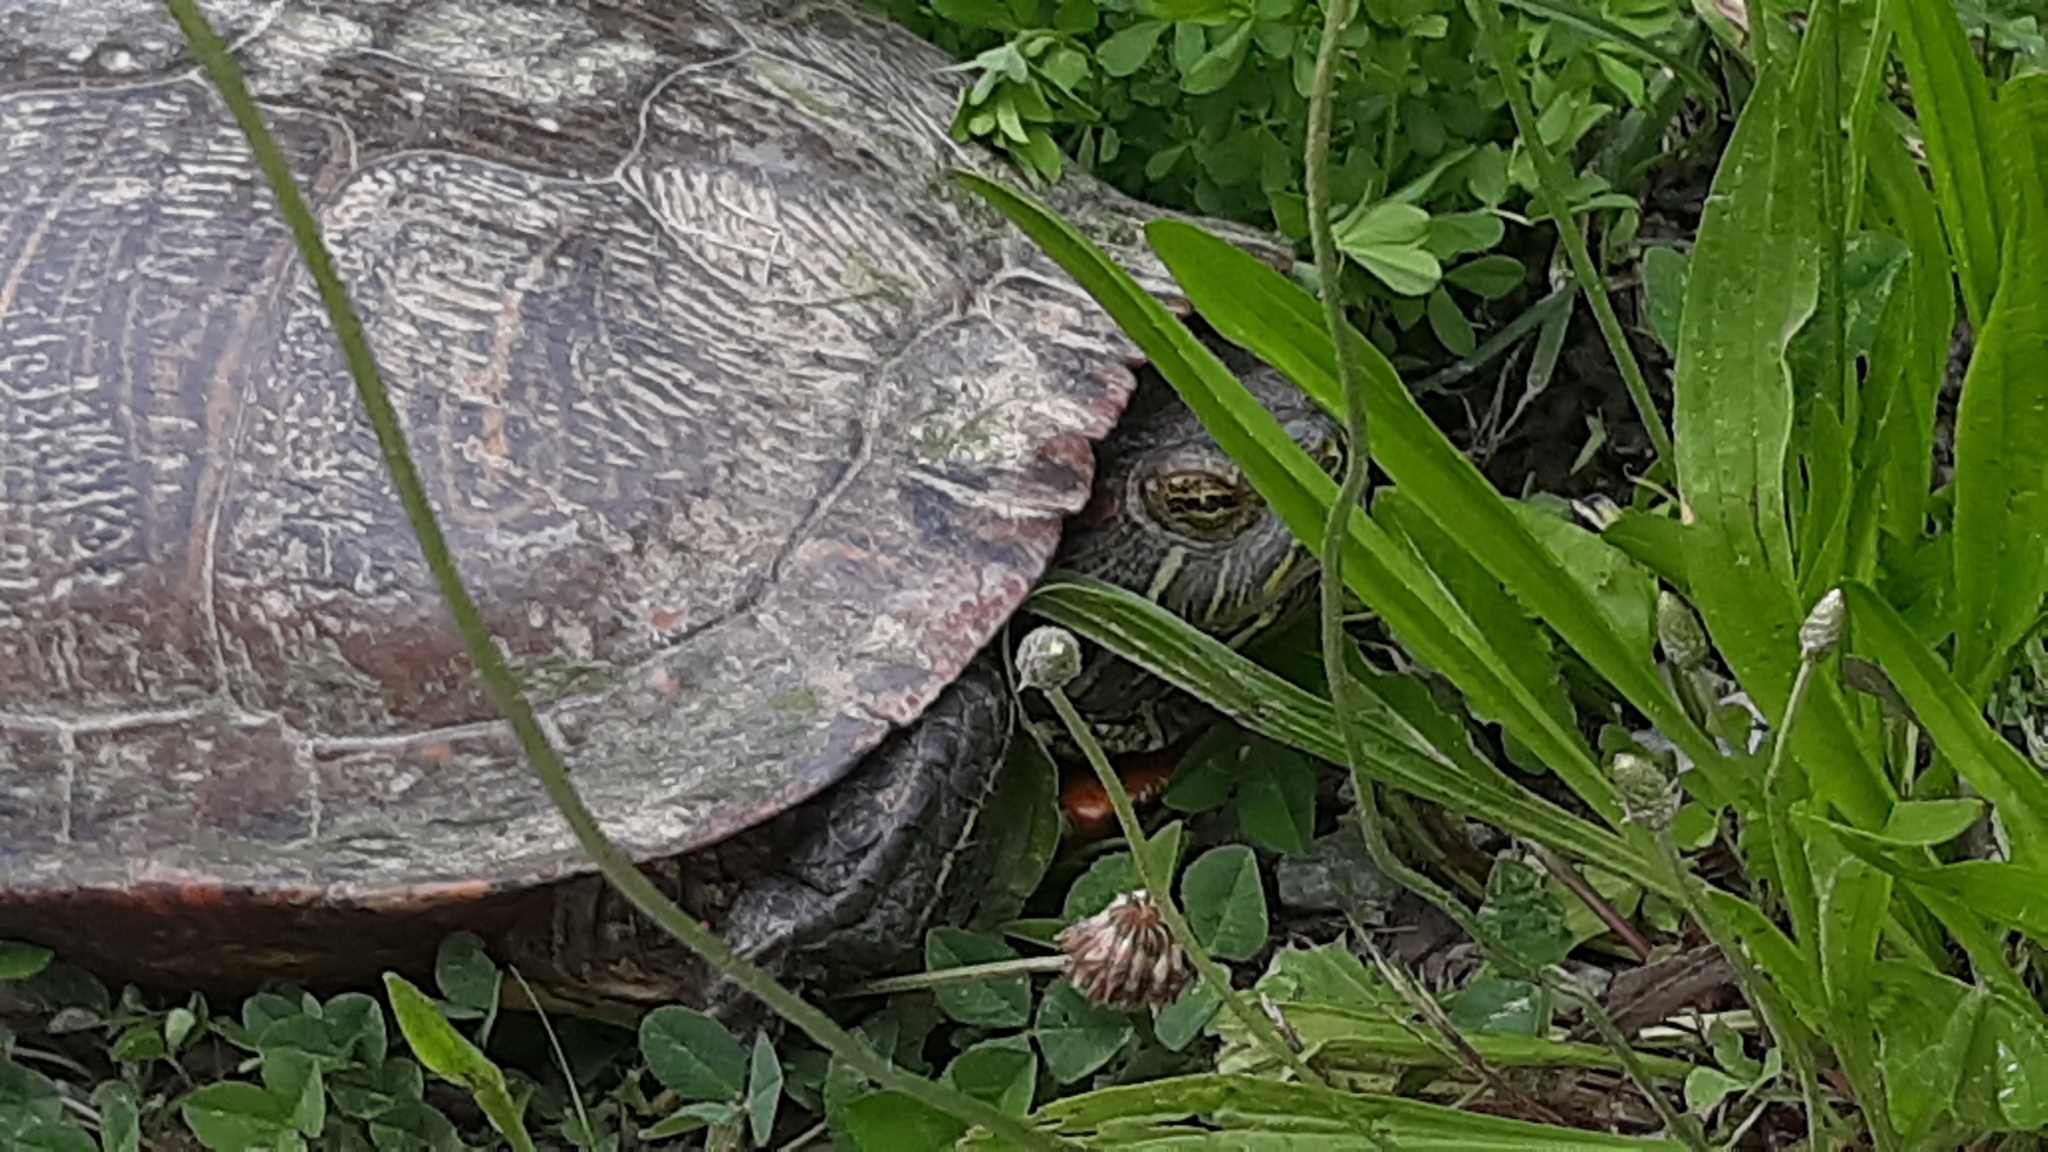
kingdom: Animalia
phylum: Chordata
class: Testudines
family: Emydidae
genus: Trachemys
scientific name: Trachemys scripta
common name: Slider
